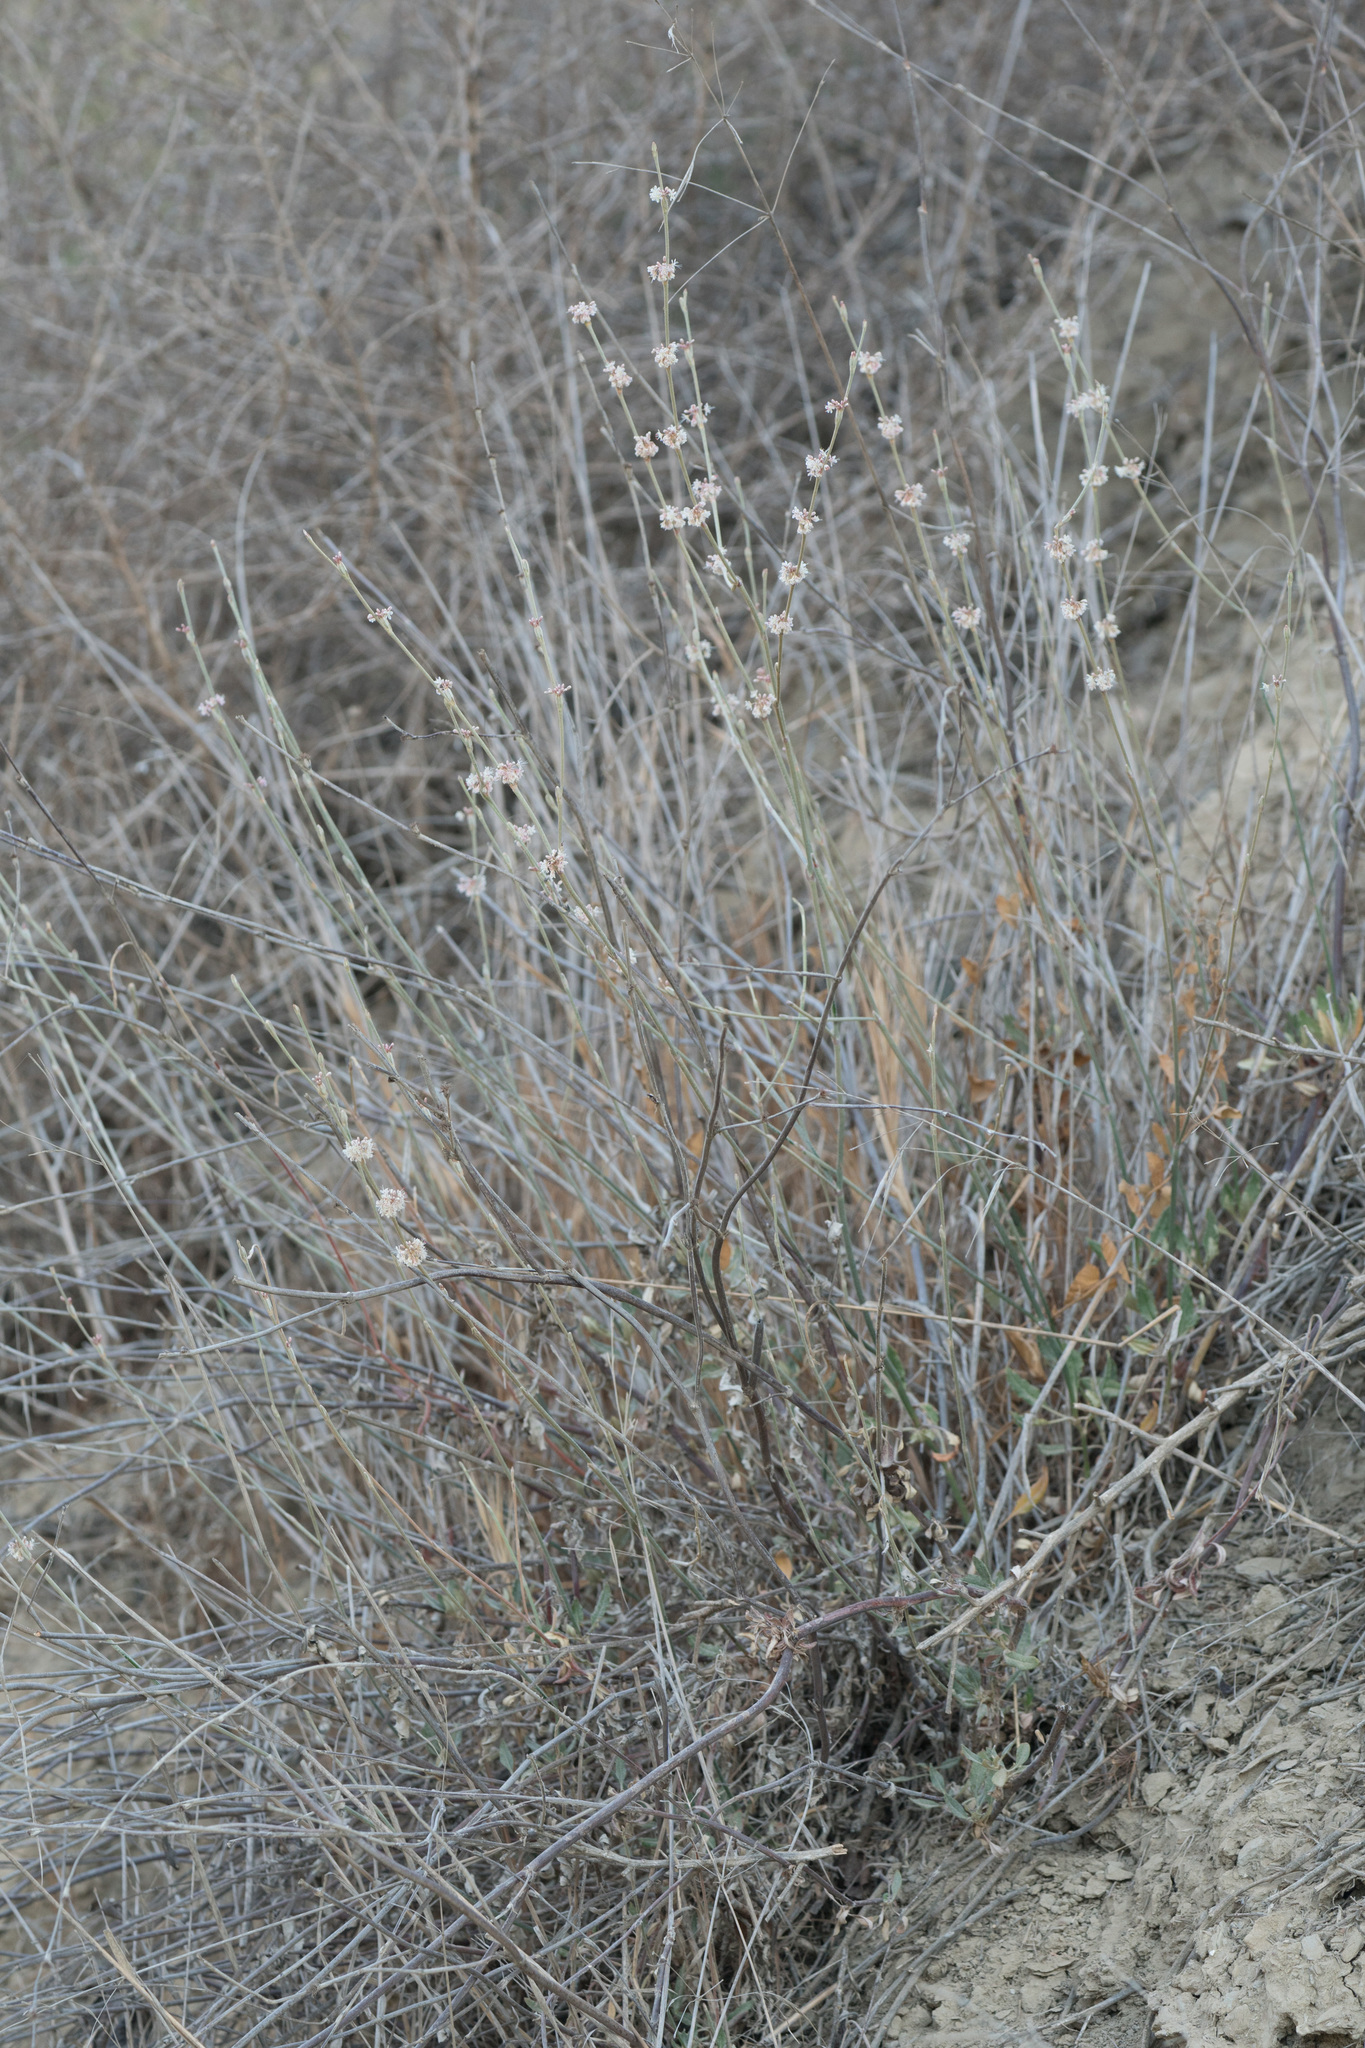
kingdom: Plantae
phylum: Tracheophyta
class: Magnoliopsida
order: Caryophyllales
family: Polygonaceae
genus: Eriogonum
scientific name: Eriogonum elongatum
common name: Long-stem wild buckwheat
